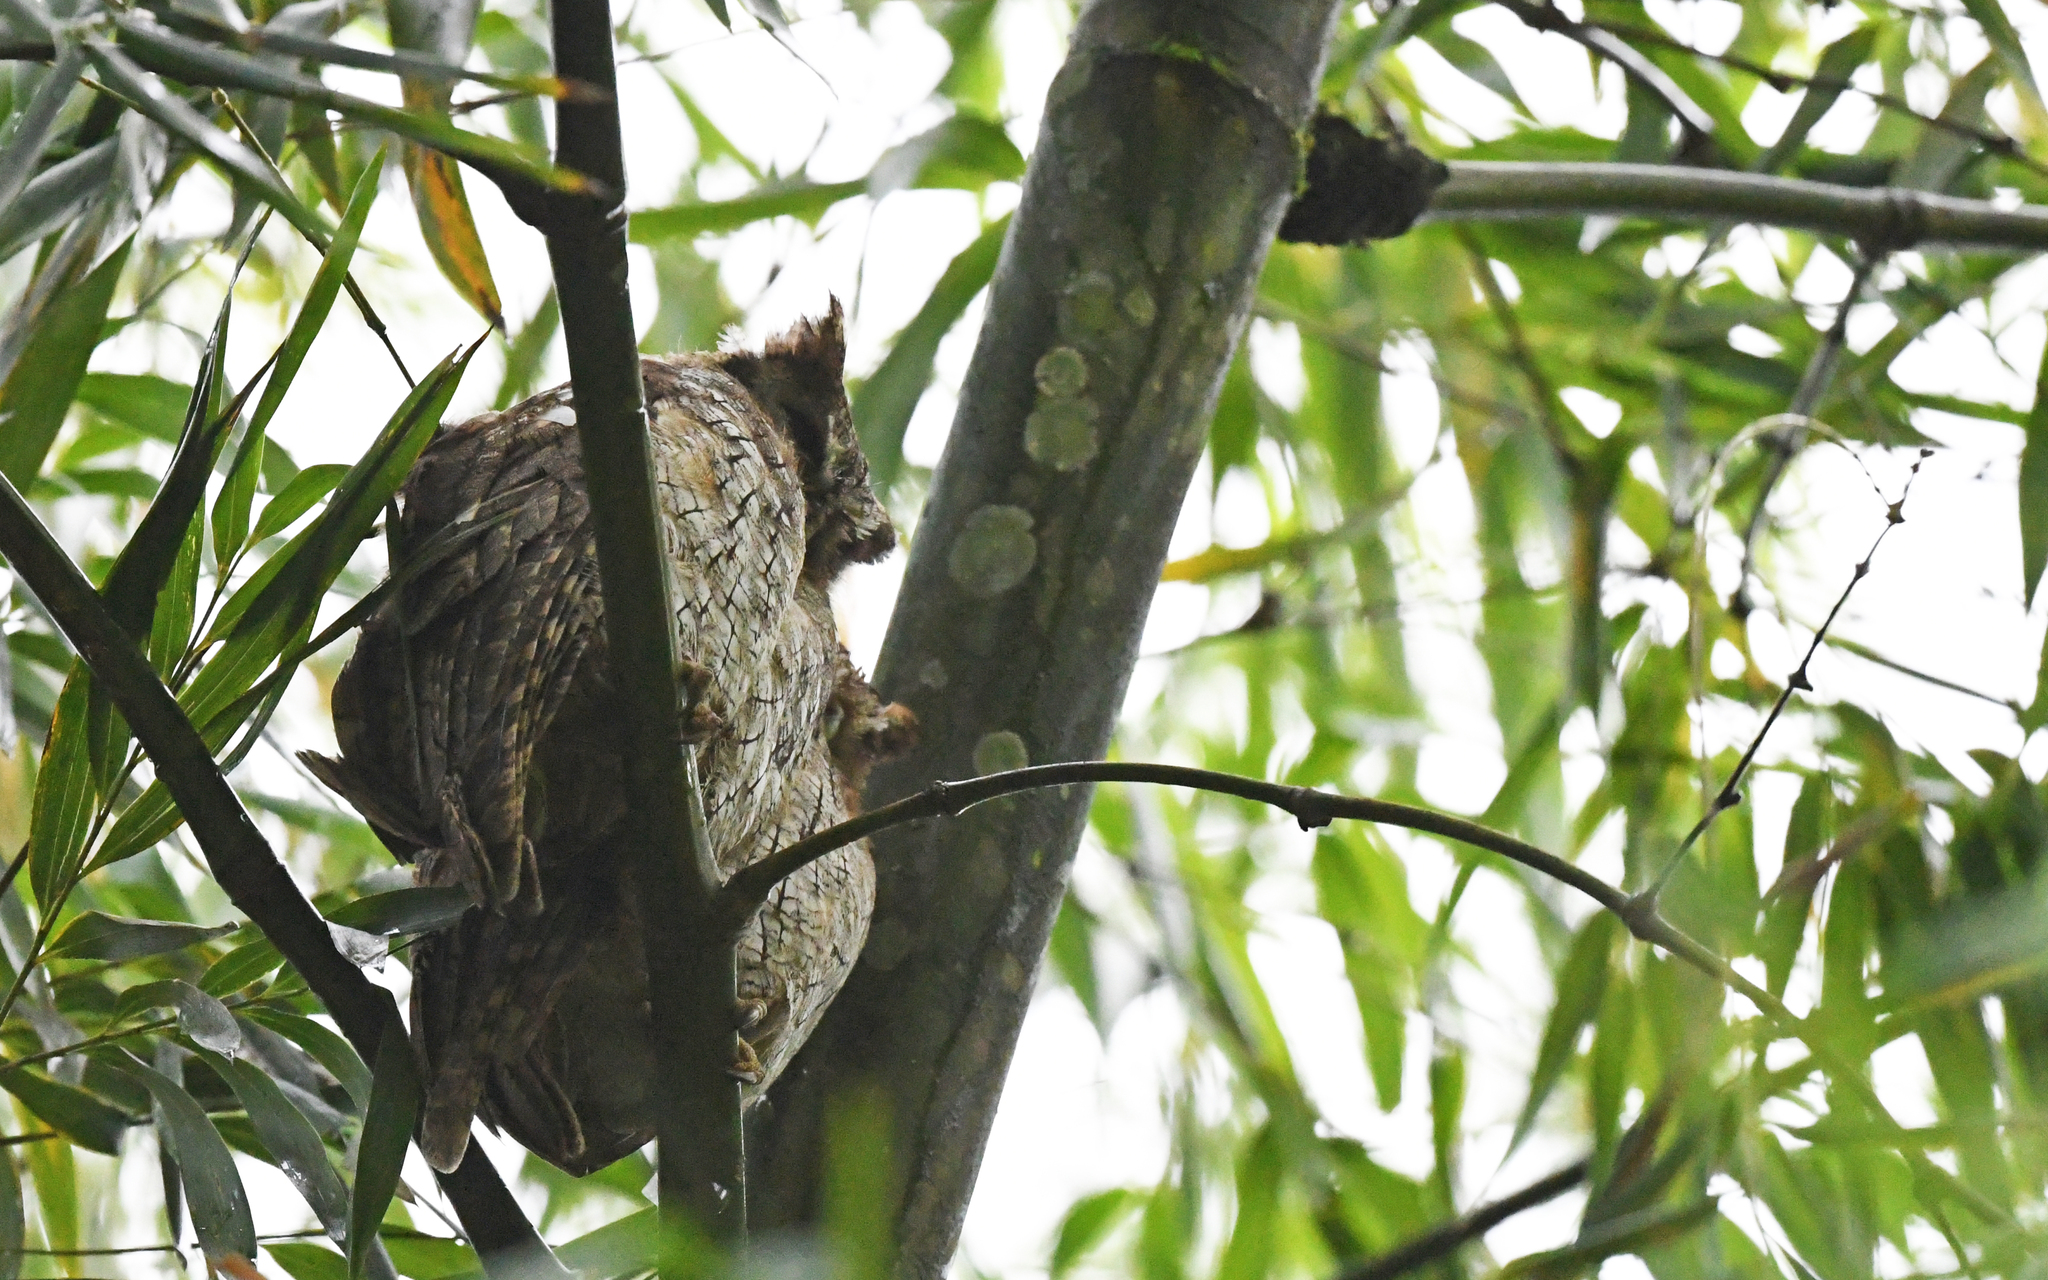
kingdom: Animalia
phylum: Chordata
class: Aves
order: Strigiformes
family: Strigidae
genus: Megascops
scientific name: Megascops choliba
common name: Tropical screech-owl
